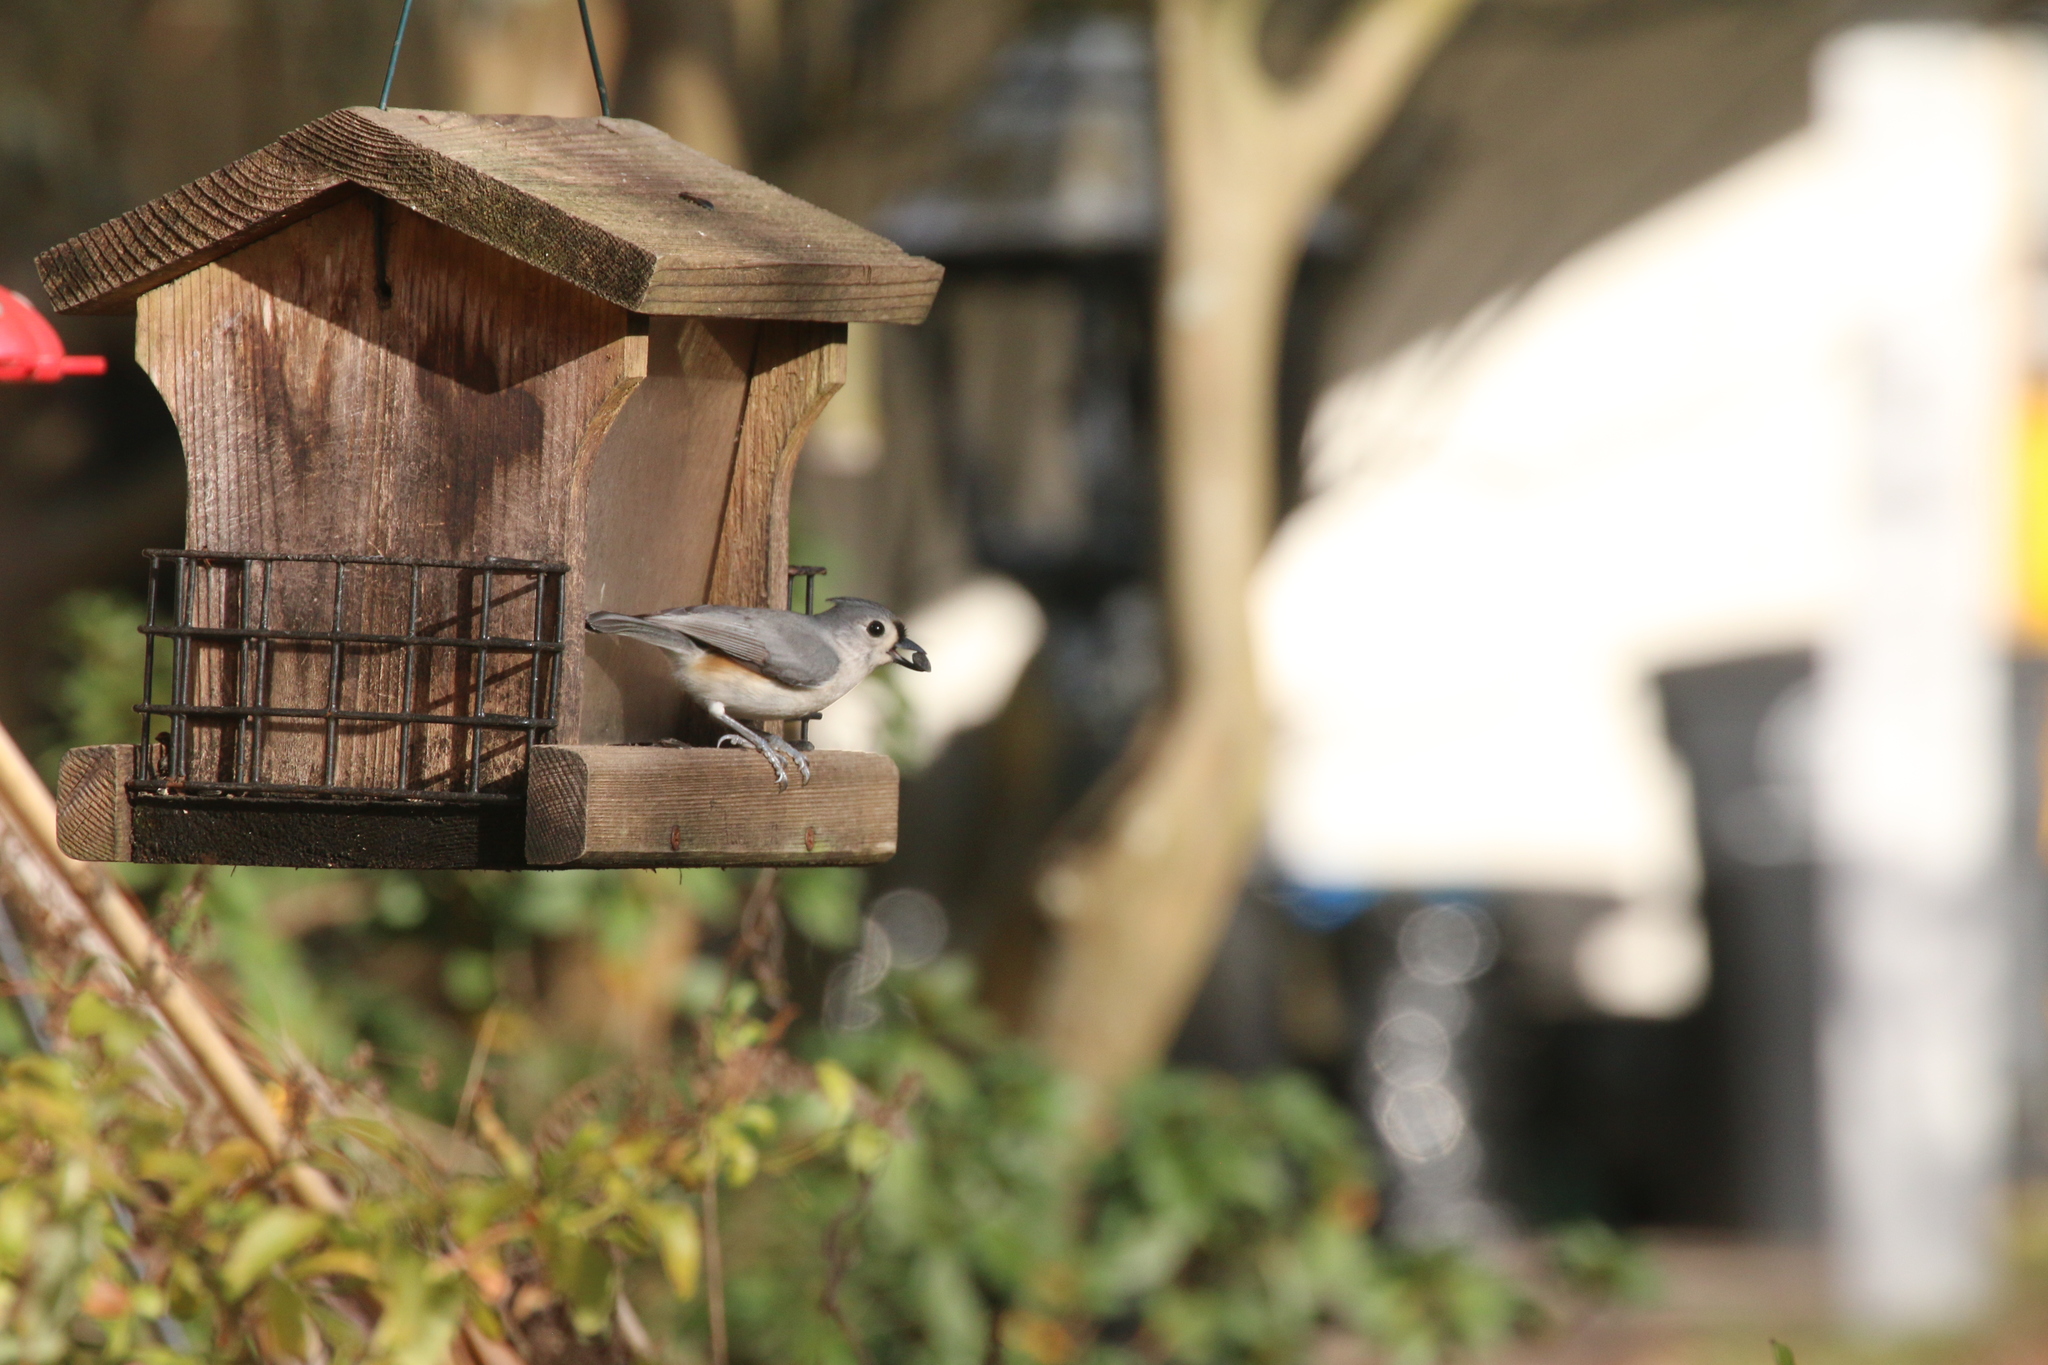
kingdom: Animalia
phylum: Chordata
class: Aves
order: Passeriformes
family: Paridae
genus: Baeolophus
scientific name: Baeolophus bicolor
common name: Tufted titmouse
